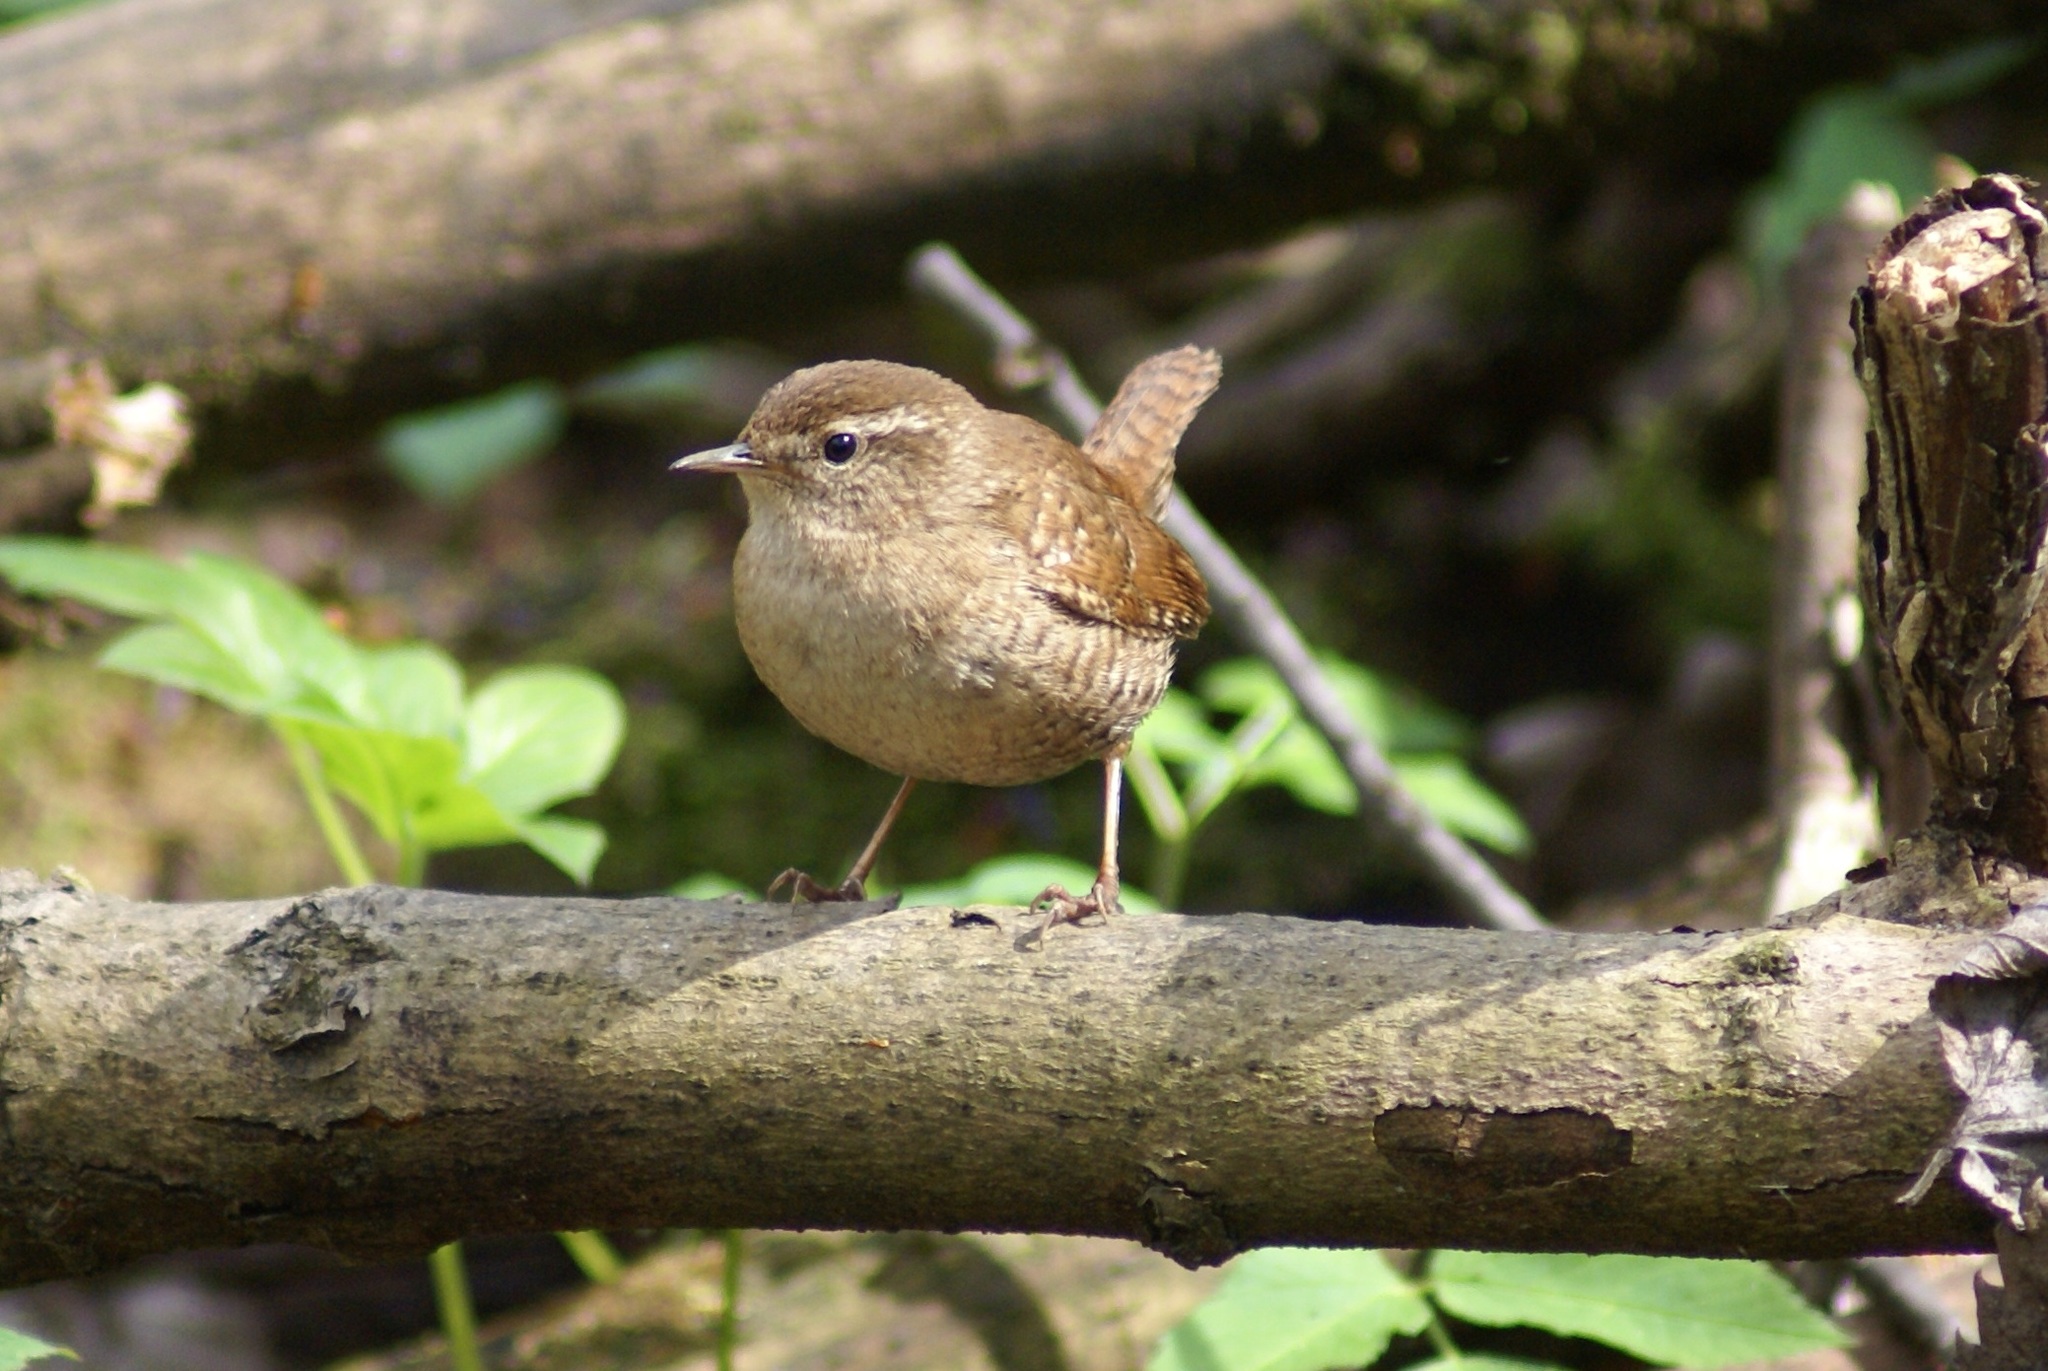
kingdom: Animalia
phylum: Chordata
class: Aves
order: Passeriformes
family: Troglodytidae
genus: Troglodytes
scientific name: Troglodytes troglodytes
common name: Eurasian wren
